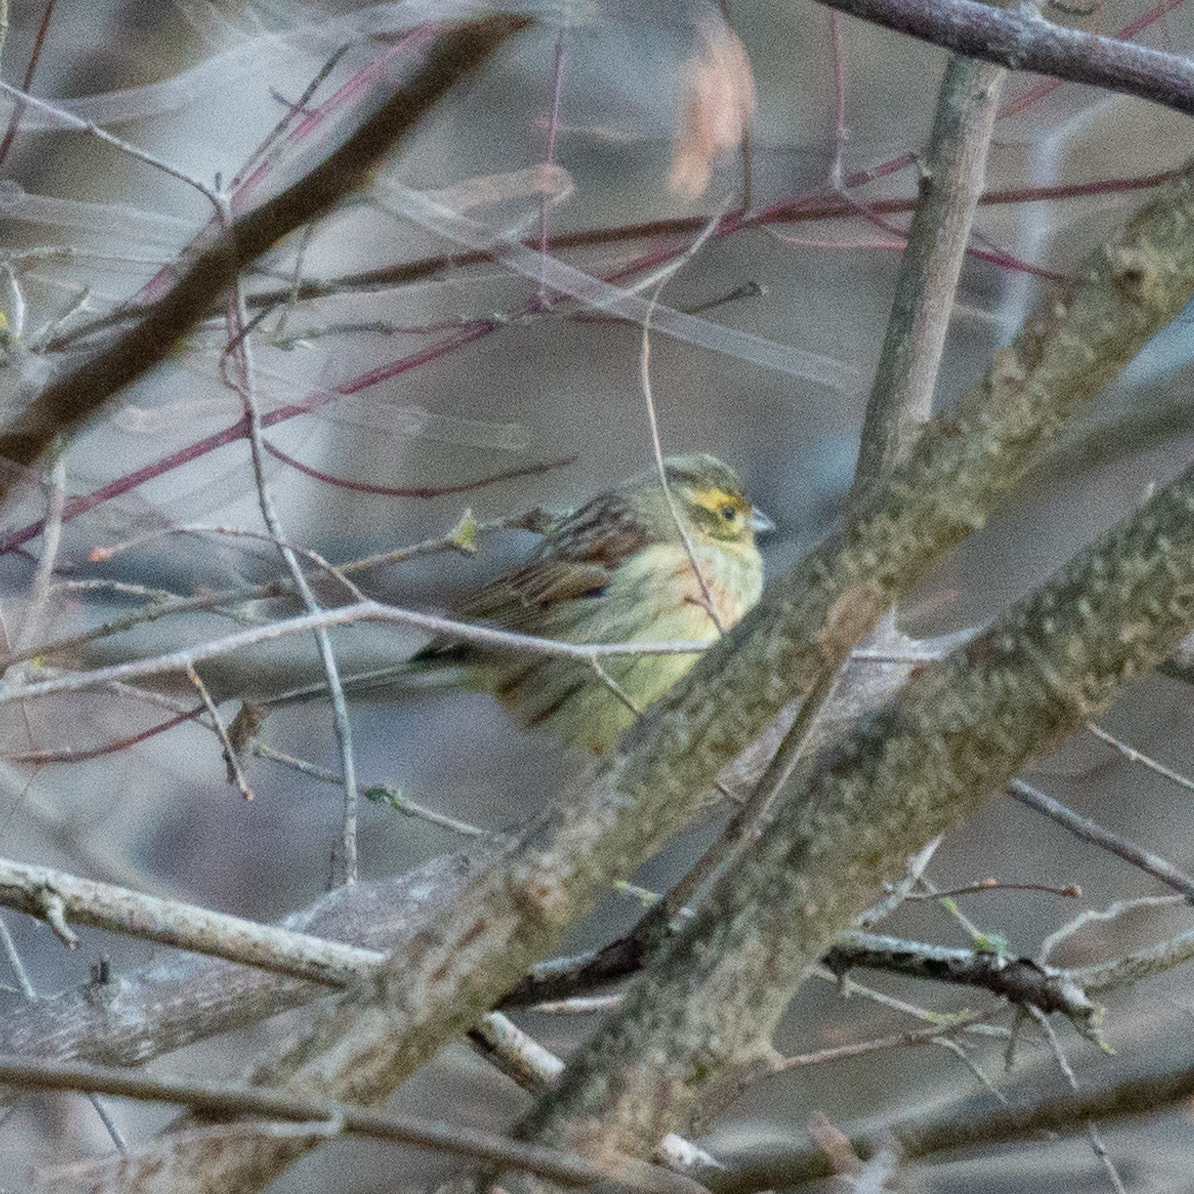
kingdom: Animalia
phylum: Chordata
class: Aves
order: Passeriformes
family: Emberizidae
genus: Emberiza
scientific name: Emberiza citrinella
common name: Yellowhammer
